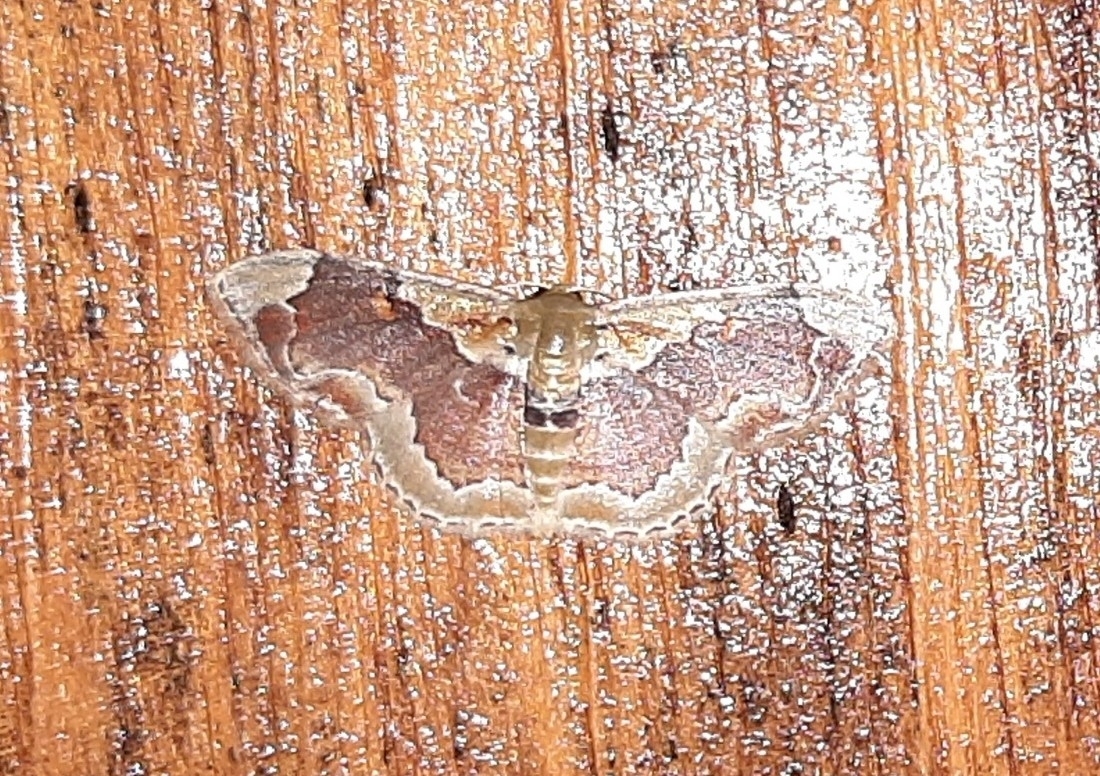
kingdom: Animalia
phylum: Arthropoda
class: Insecta
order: Lepidoptera
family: Geometridae
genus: Leptostales
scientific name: Leptostales angulata
